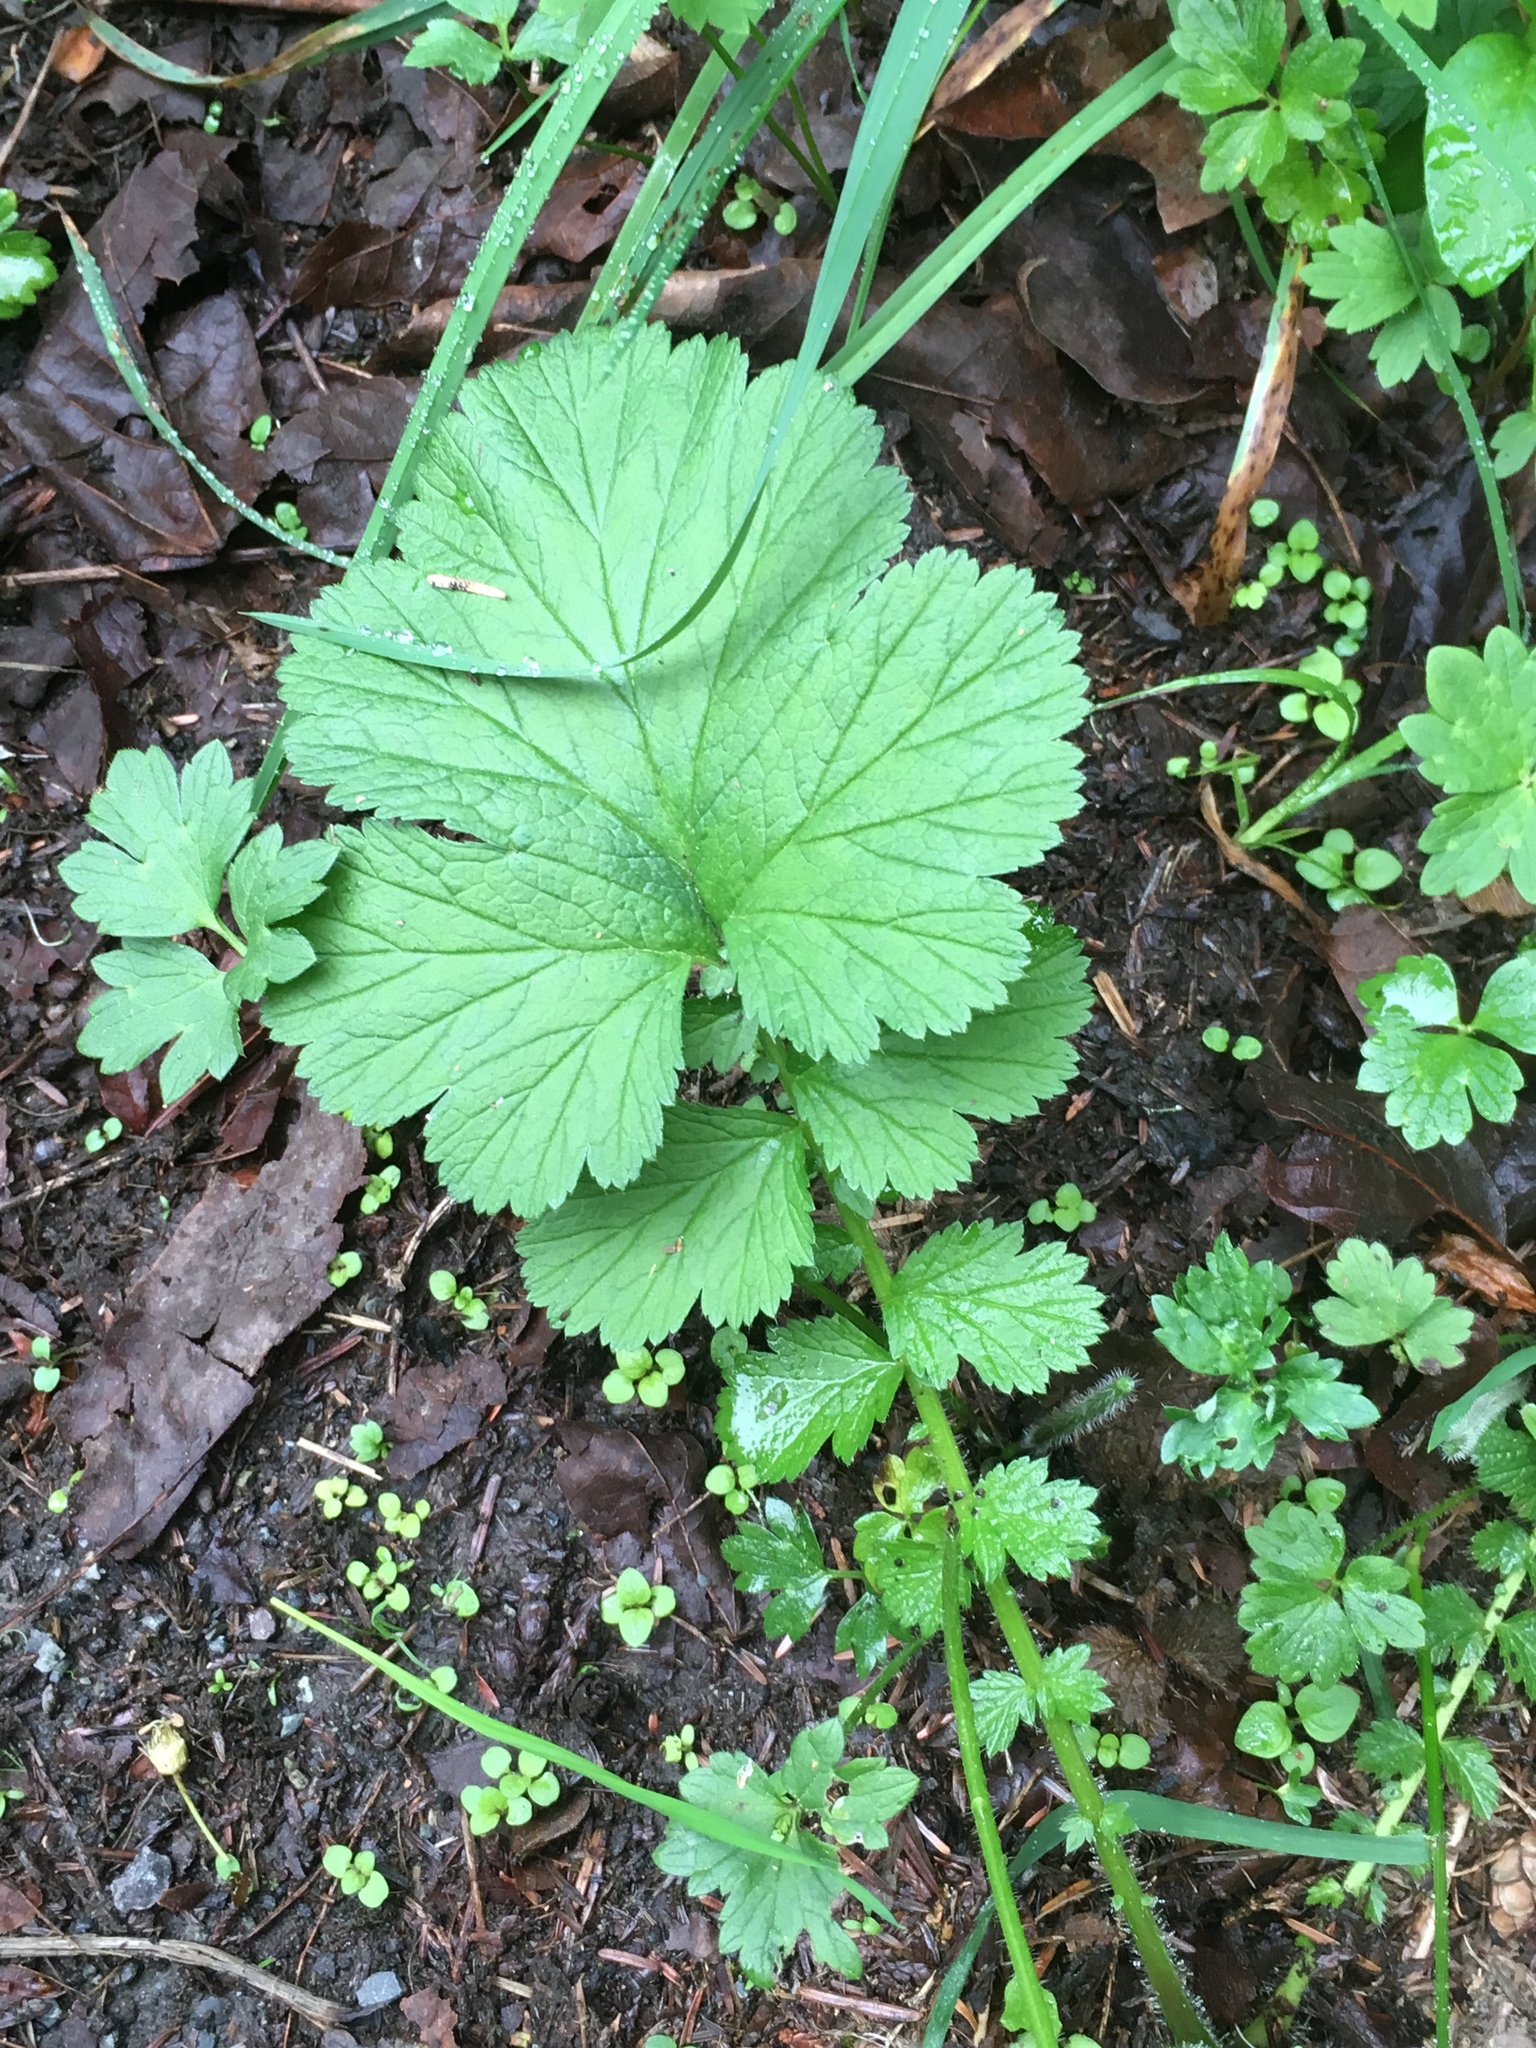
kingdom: Plantae
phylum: Tracheophyta
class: Magnoliopsida
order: Rosales
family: Rosaceae
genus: Geum
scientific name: Geum macrophyllum
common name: Large-leaved avens
